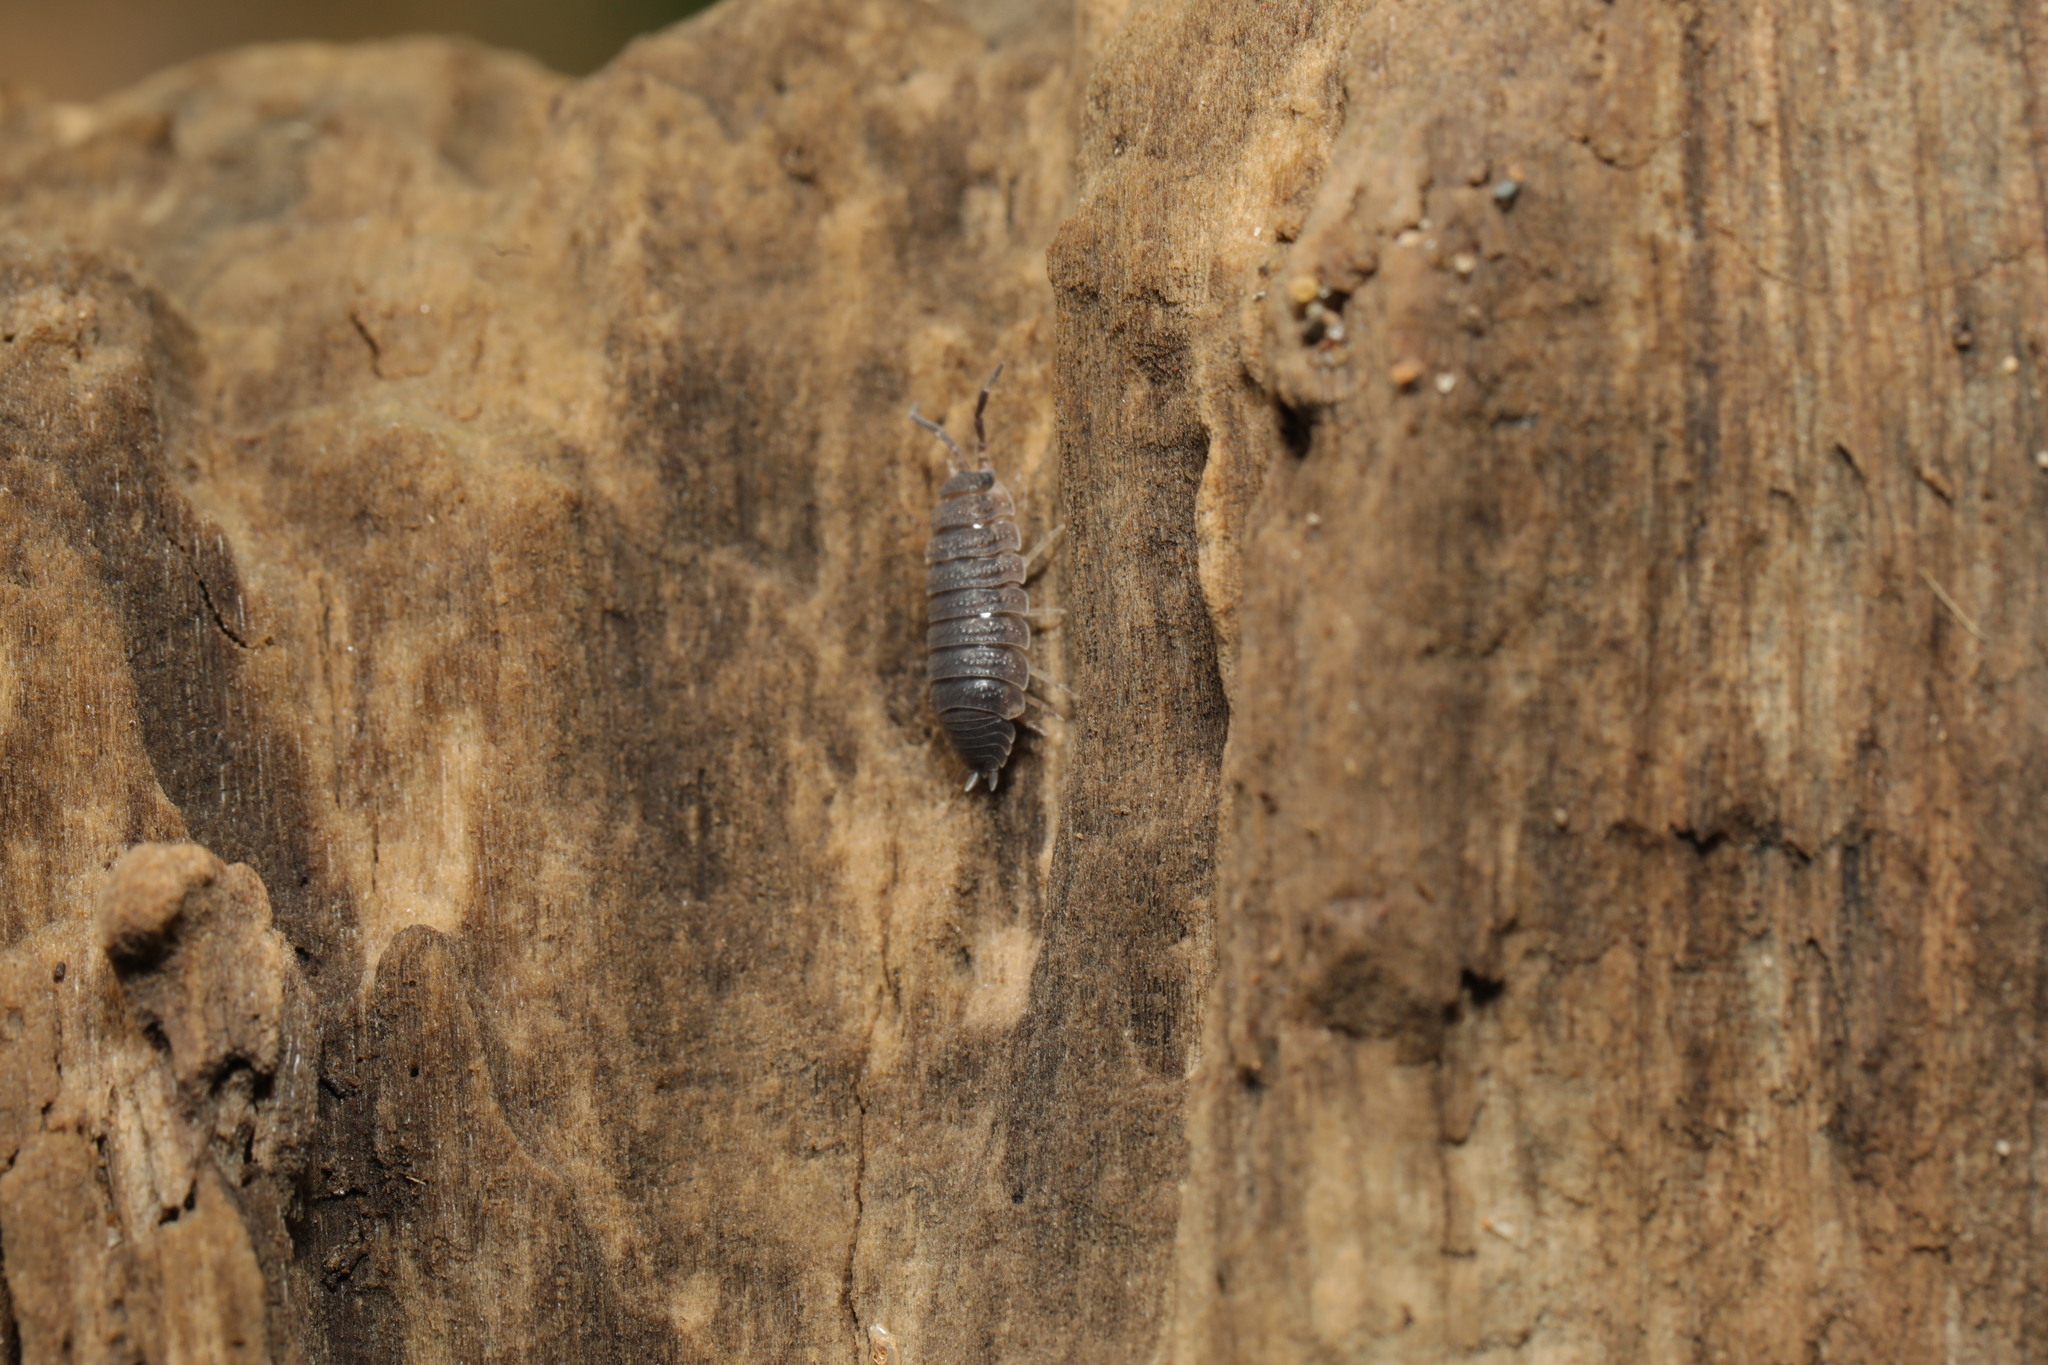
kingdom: Animalia
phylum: Arthropoda
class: Malacostraca
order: Isopoda
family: Porcellionidae
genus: Porcellio
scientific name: Porcellio scaber
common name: Common rough woodlouse
